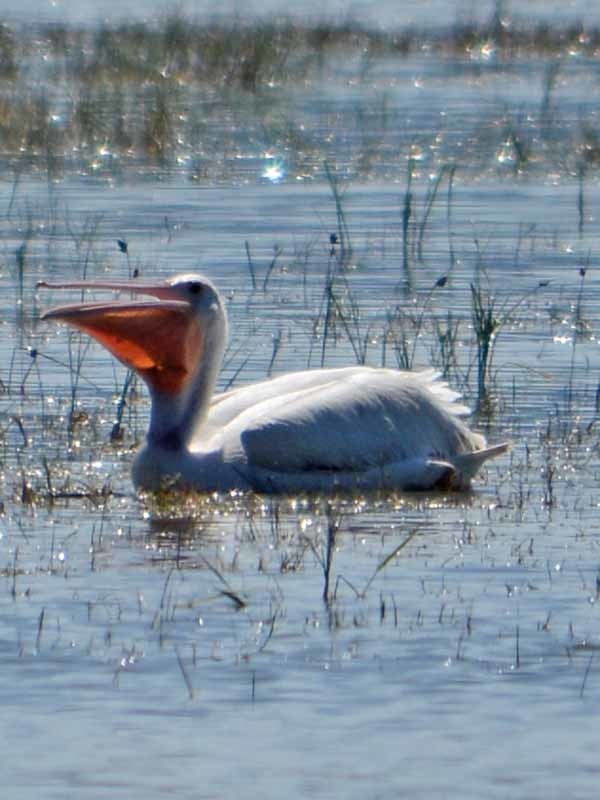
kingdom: Animalia
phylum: Chordata
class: Aves
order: Pelecaniformes
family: Pelecanidae
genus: Pelecanus
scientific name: Pelecanus erythrorhynchos
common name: American white pelican
